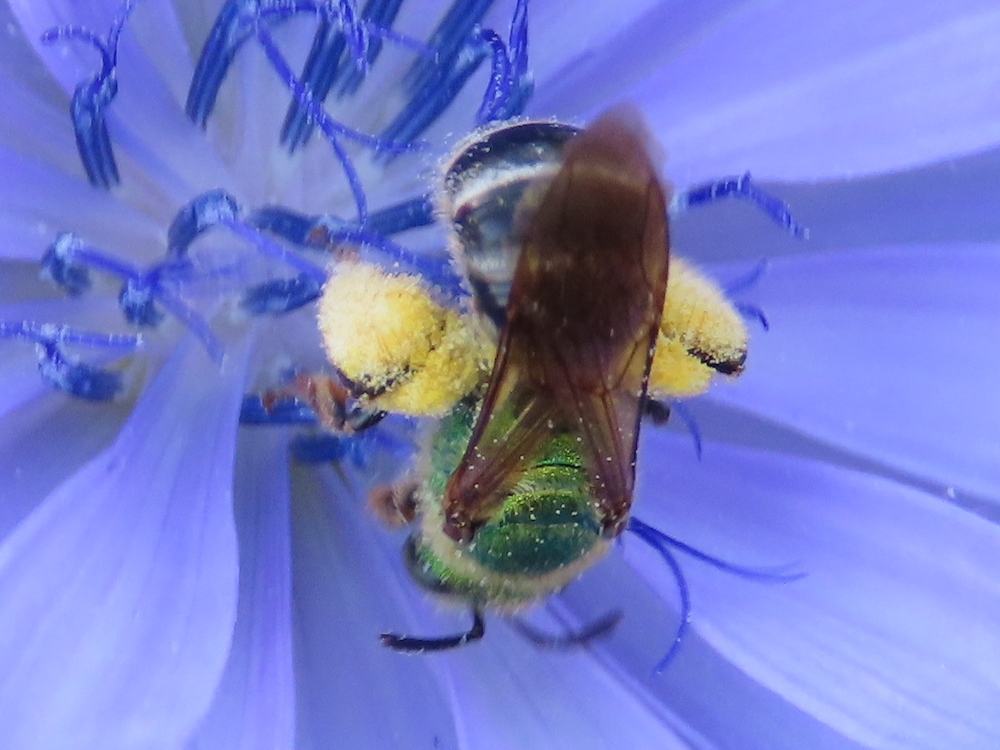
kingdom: Animalia
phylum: Arthropoda
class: Insecta
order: Hymenoptera
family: Halictidae
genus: Agapostemon
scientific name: Agapostemon virescens
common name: Bicolored striped sweat bee
